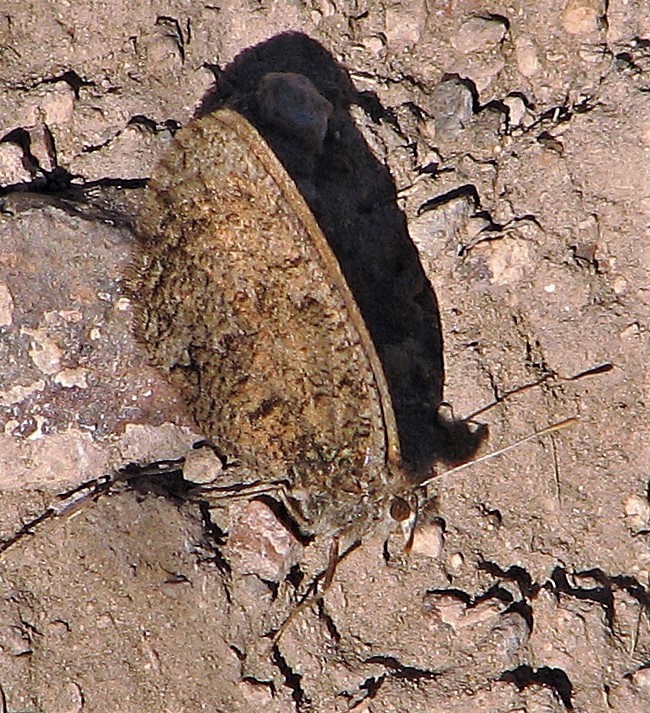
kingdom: Animalia
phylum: Arthropoda
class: Insecta
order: Lepidoptera
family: Nymphalidae
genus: Argyrophorus
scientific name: Argyrophorus
